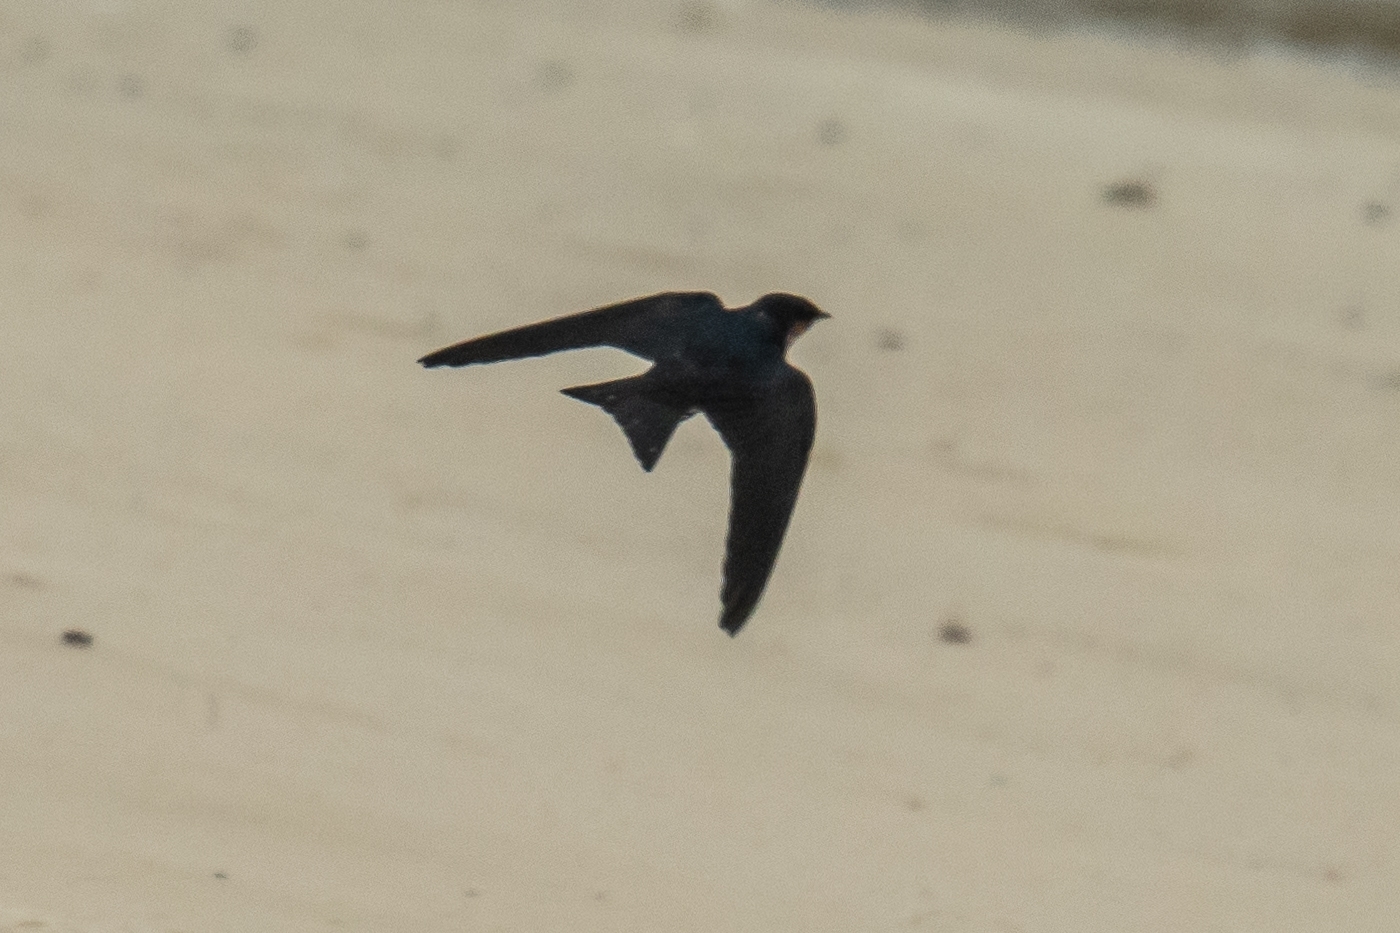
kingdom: Animalia
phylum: Chordata
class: Aves
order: Passeriformes
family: Hirundinidae
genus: Hirundo
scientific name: Hirundo tahitica
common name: Pacific swallow
